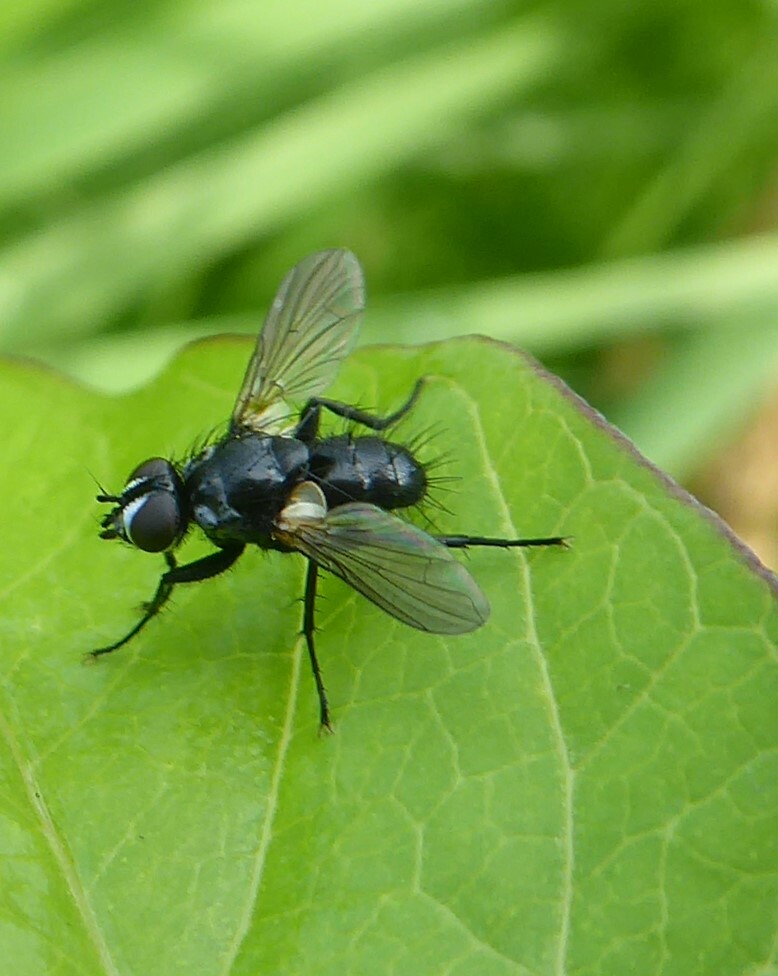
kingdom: Animalia
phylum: Arthropoda
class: Insecta
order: Diptera
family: Tachinidae
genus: Phania
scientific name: Phania funesta
